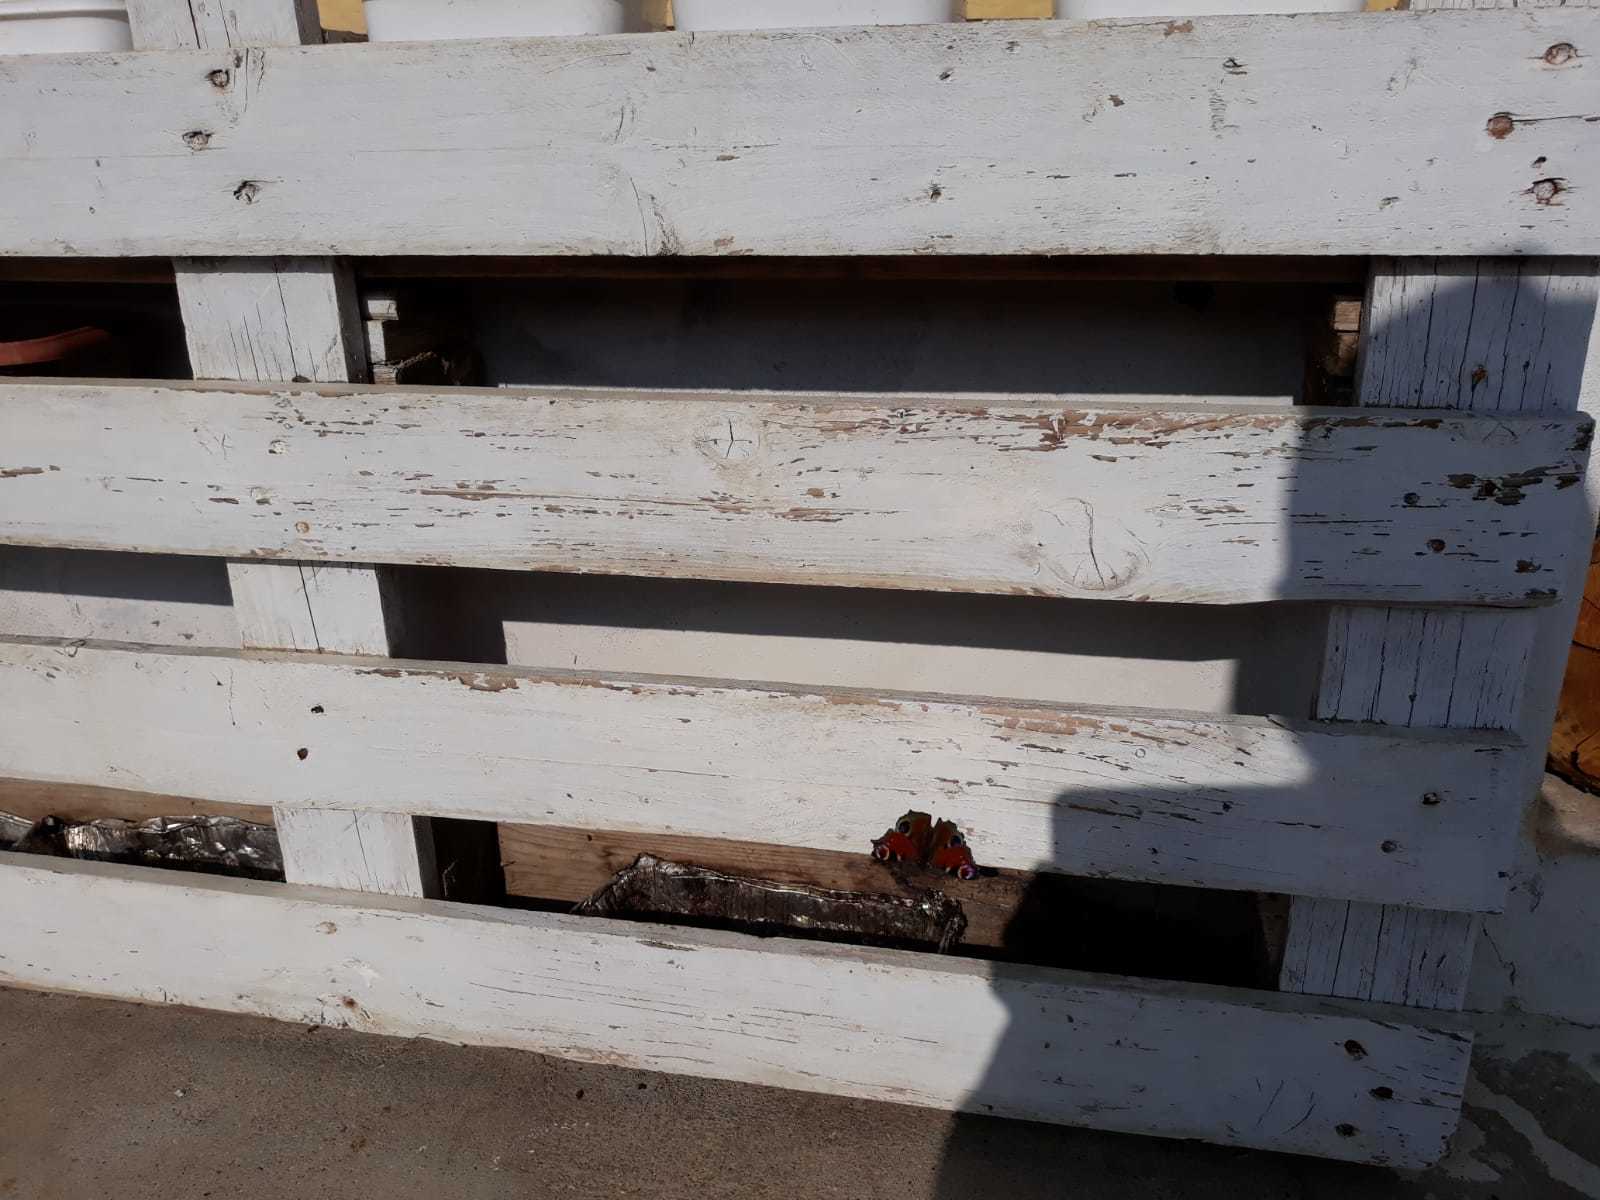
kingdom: Animalia
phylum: Arthropoda
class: Insecta
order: Lepidoptera
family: Nymphalidae
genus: Aglais
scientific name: Aglais io
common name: Peacock
